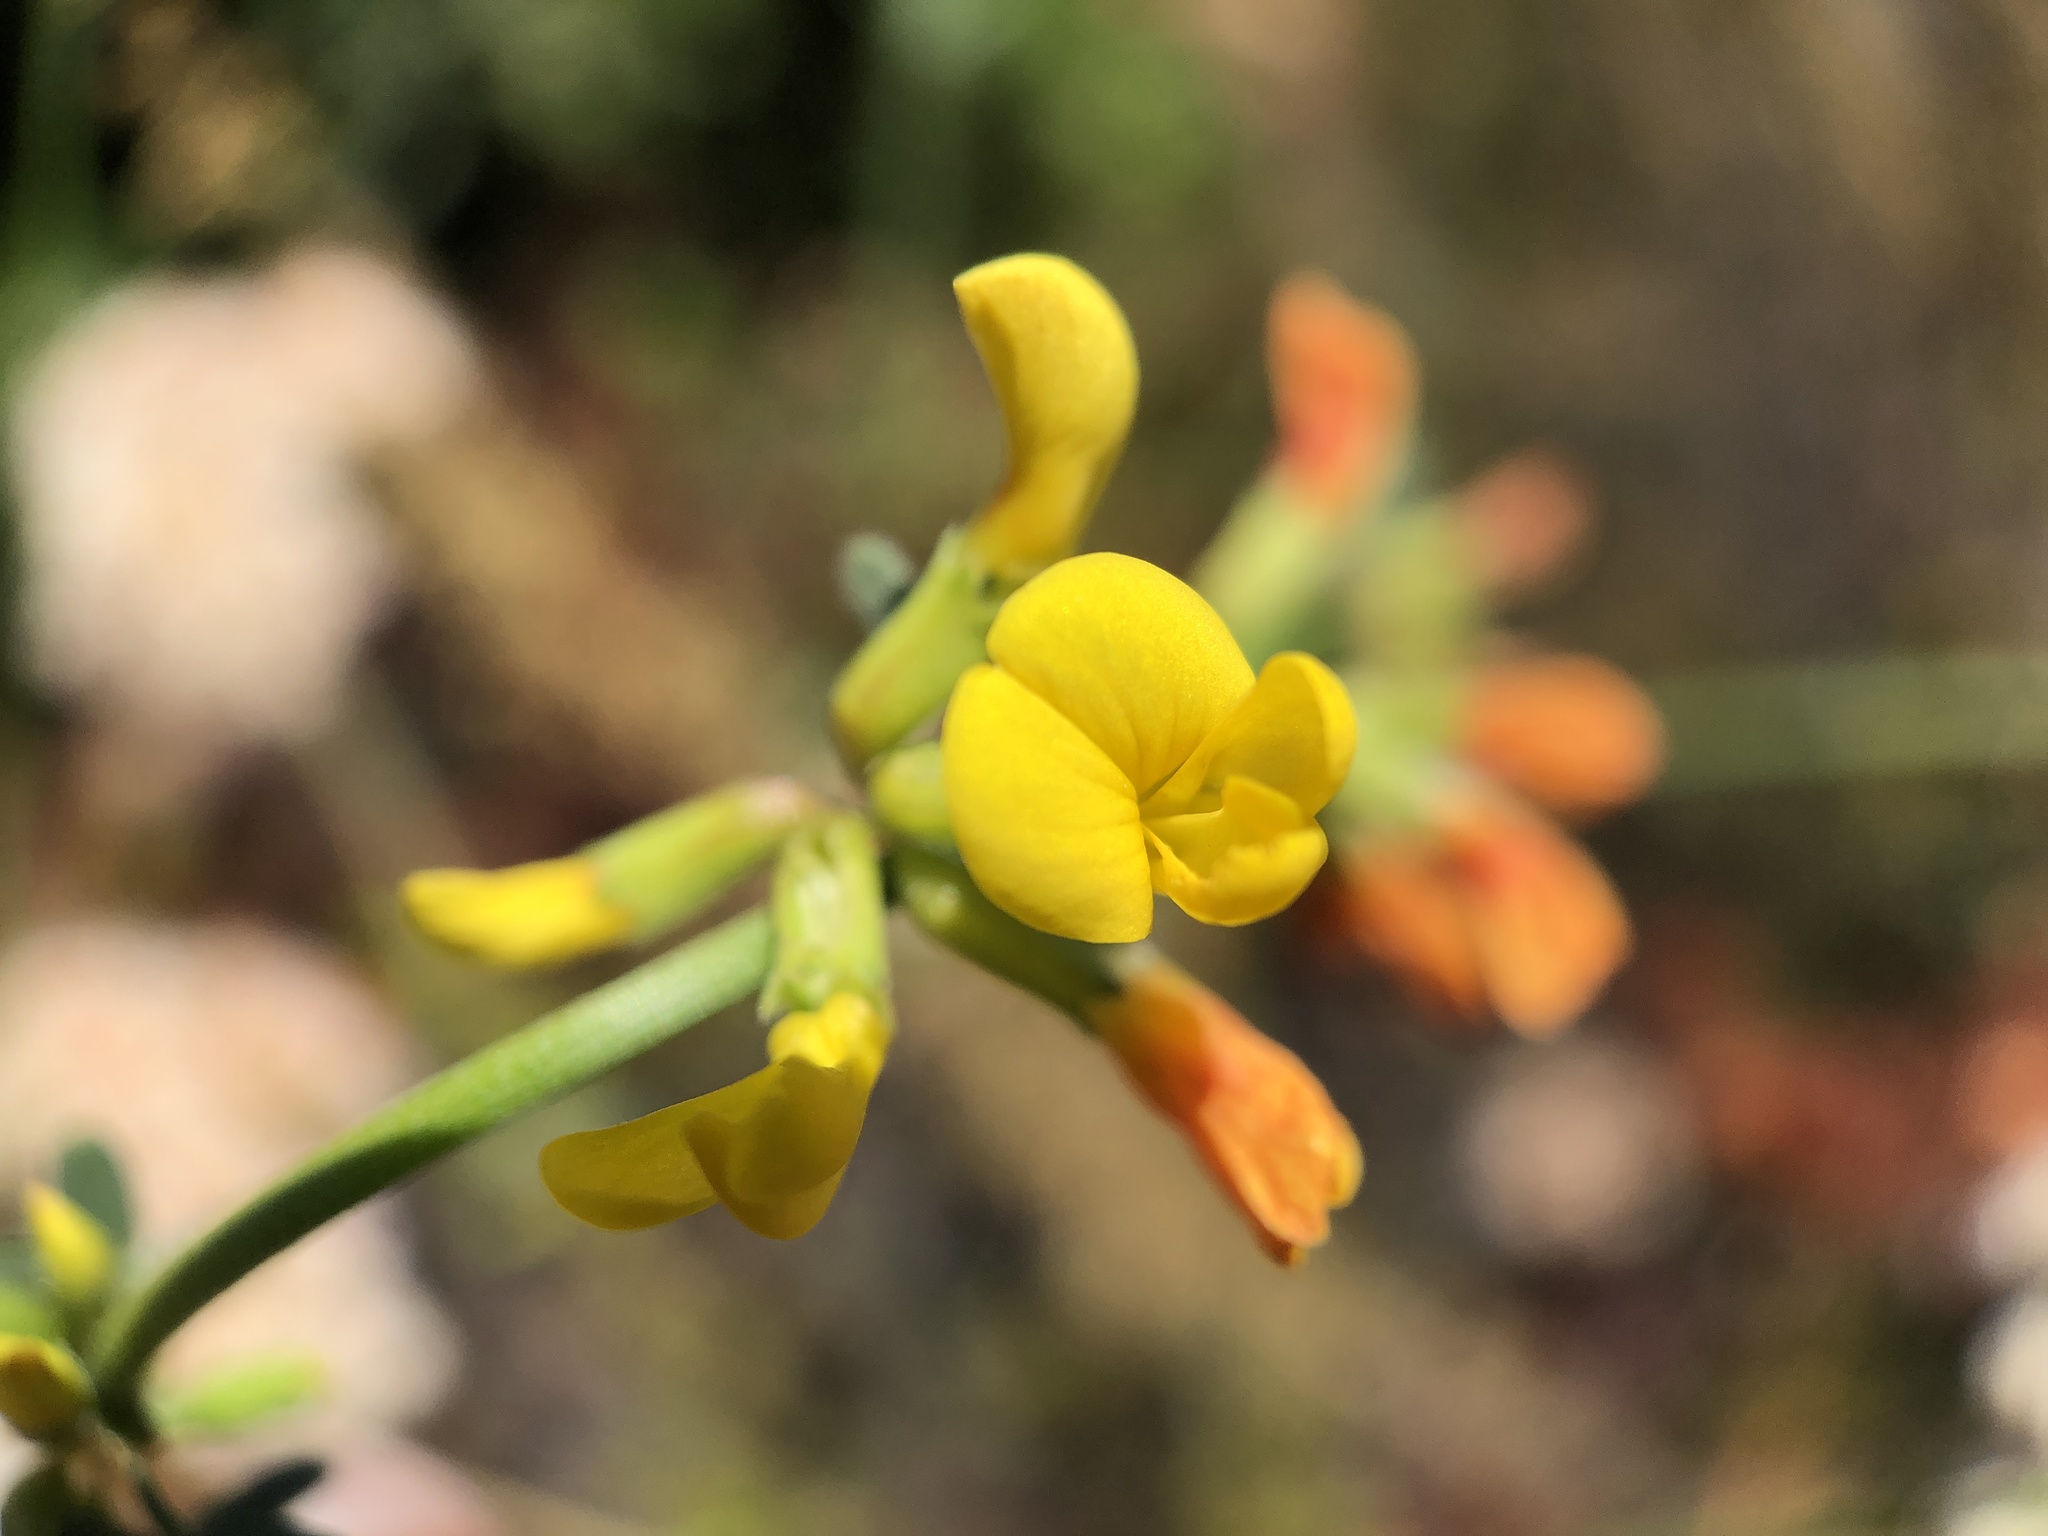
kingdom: Plantae
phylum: Tracheophyta
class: Magnoliopsida
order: Fabales
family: Fabaceae
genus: Acmispon
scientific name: Acmispon glaber
